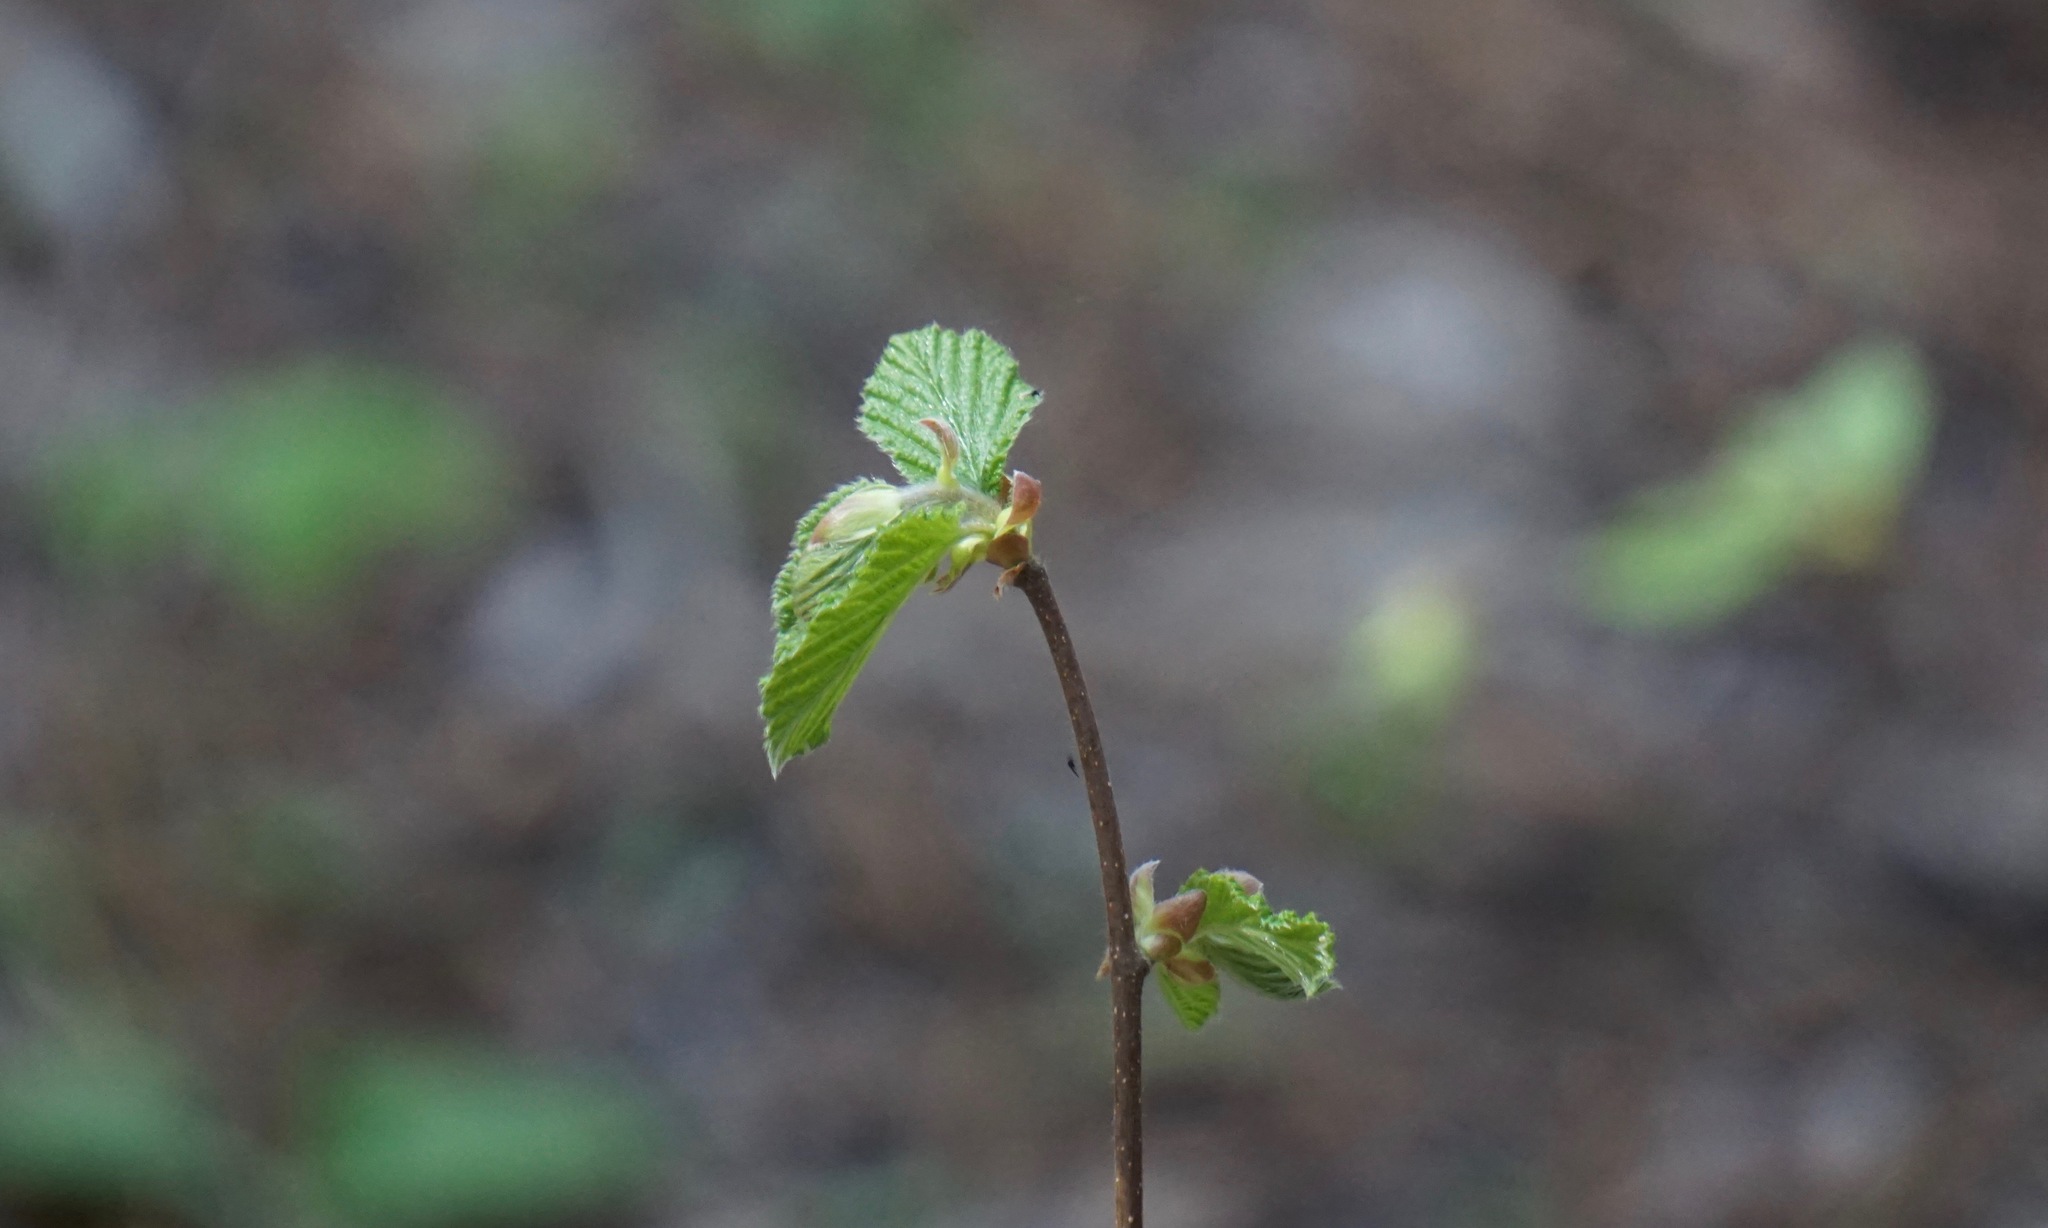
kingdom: Plantae
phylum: Tracheophyta
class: Magnoliopsida
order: Fagales
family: Betulaceae
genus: Corylus
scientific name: Corylus cornuta
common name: Beaked hazel
